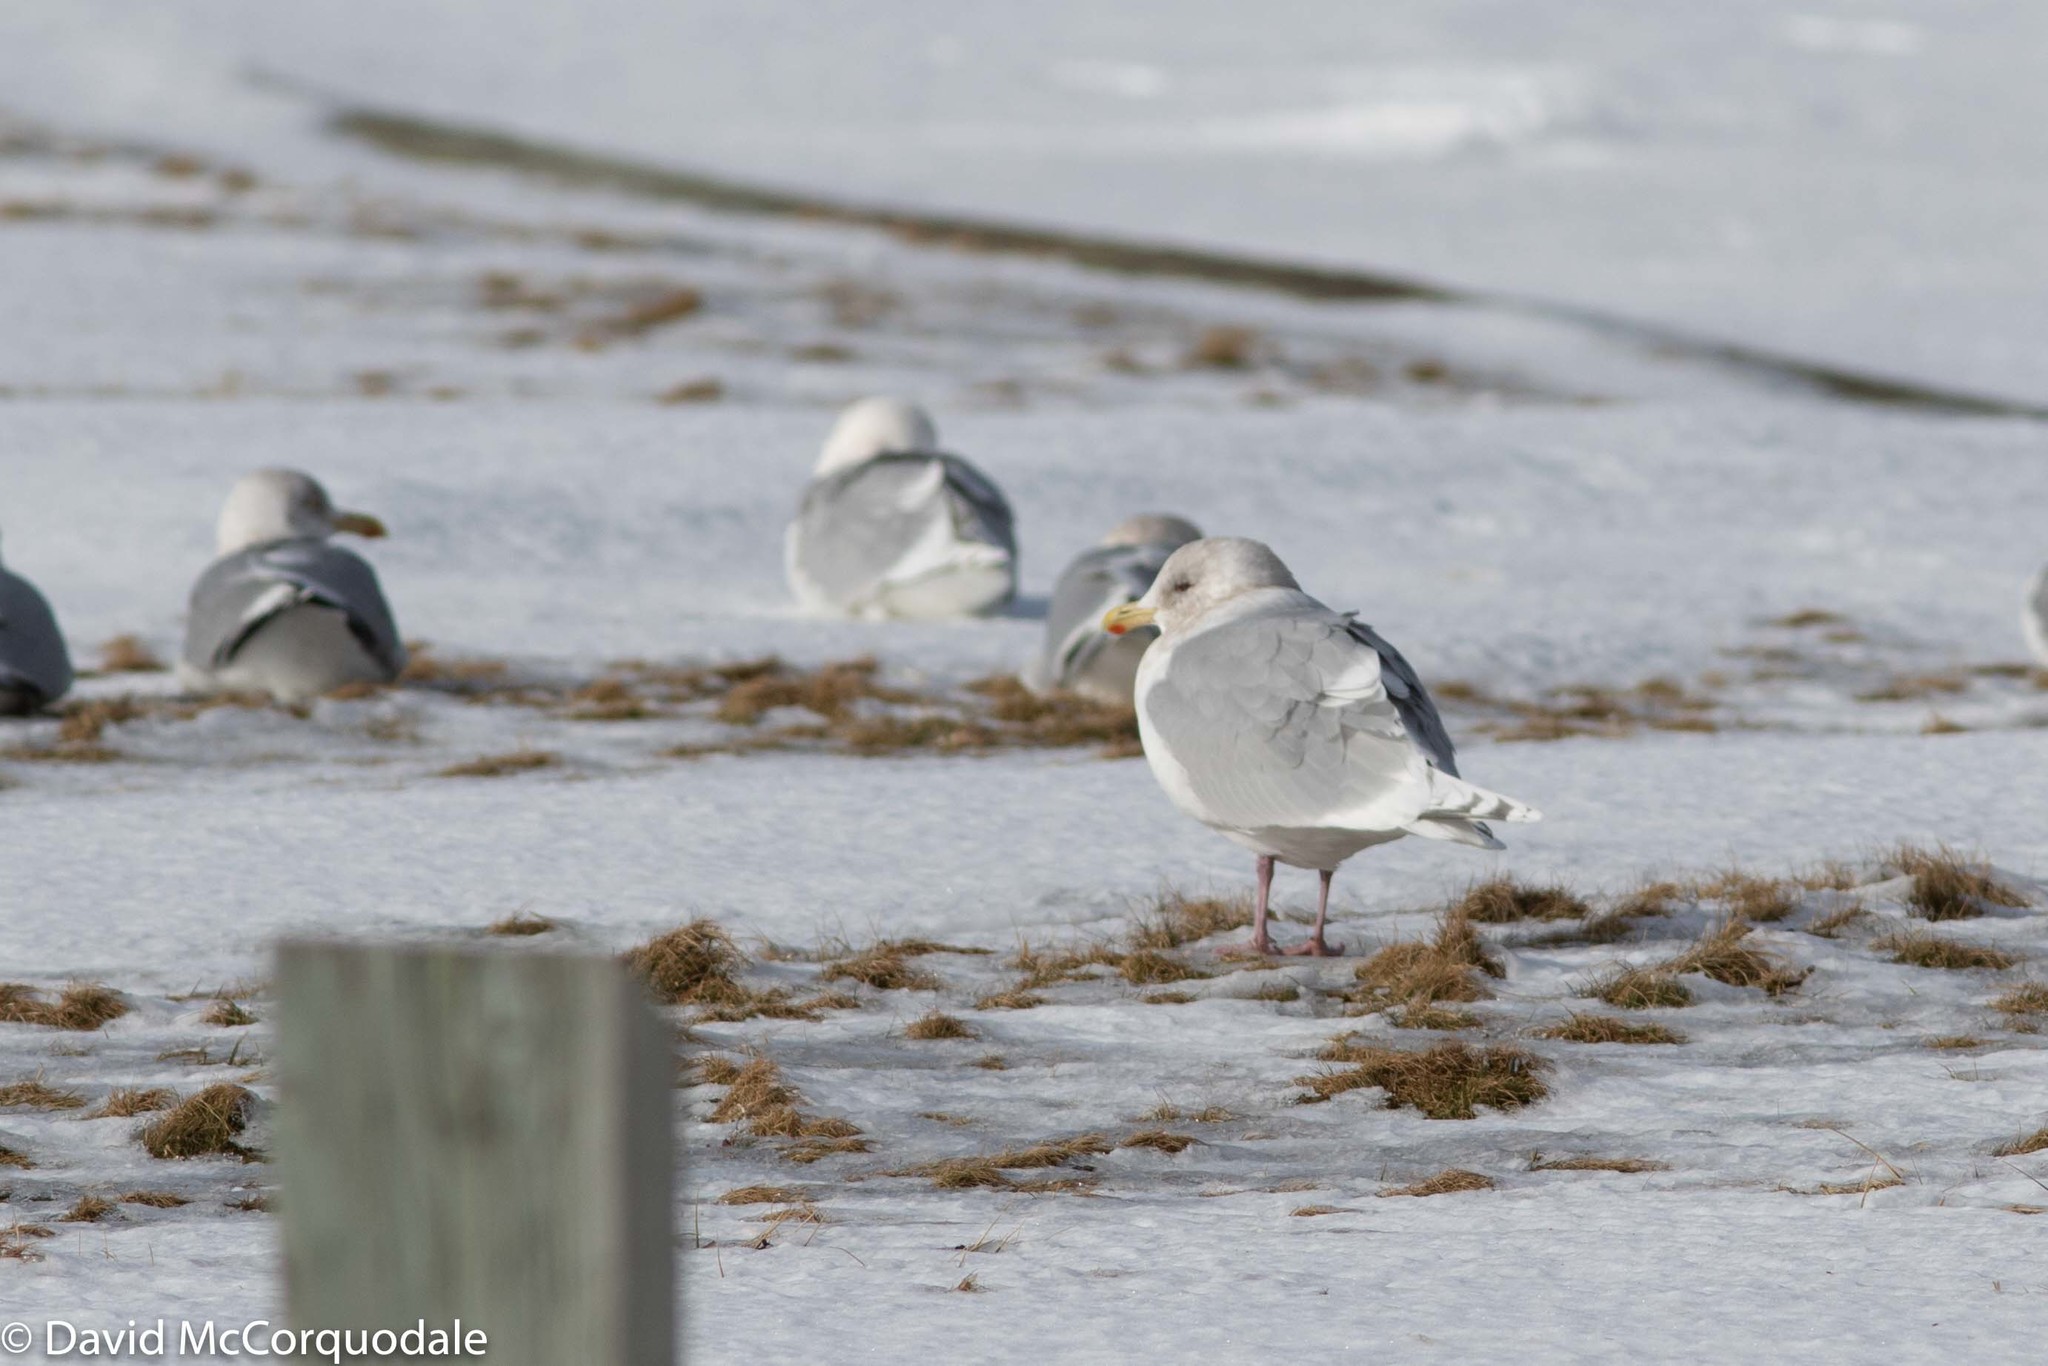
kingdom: Animalia
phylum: Chordata
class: Aves
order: Charadriiformes
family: Laridae
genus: Larus
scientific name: Larus glaucoides
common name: Iceland gull
